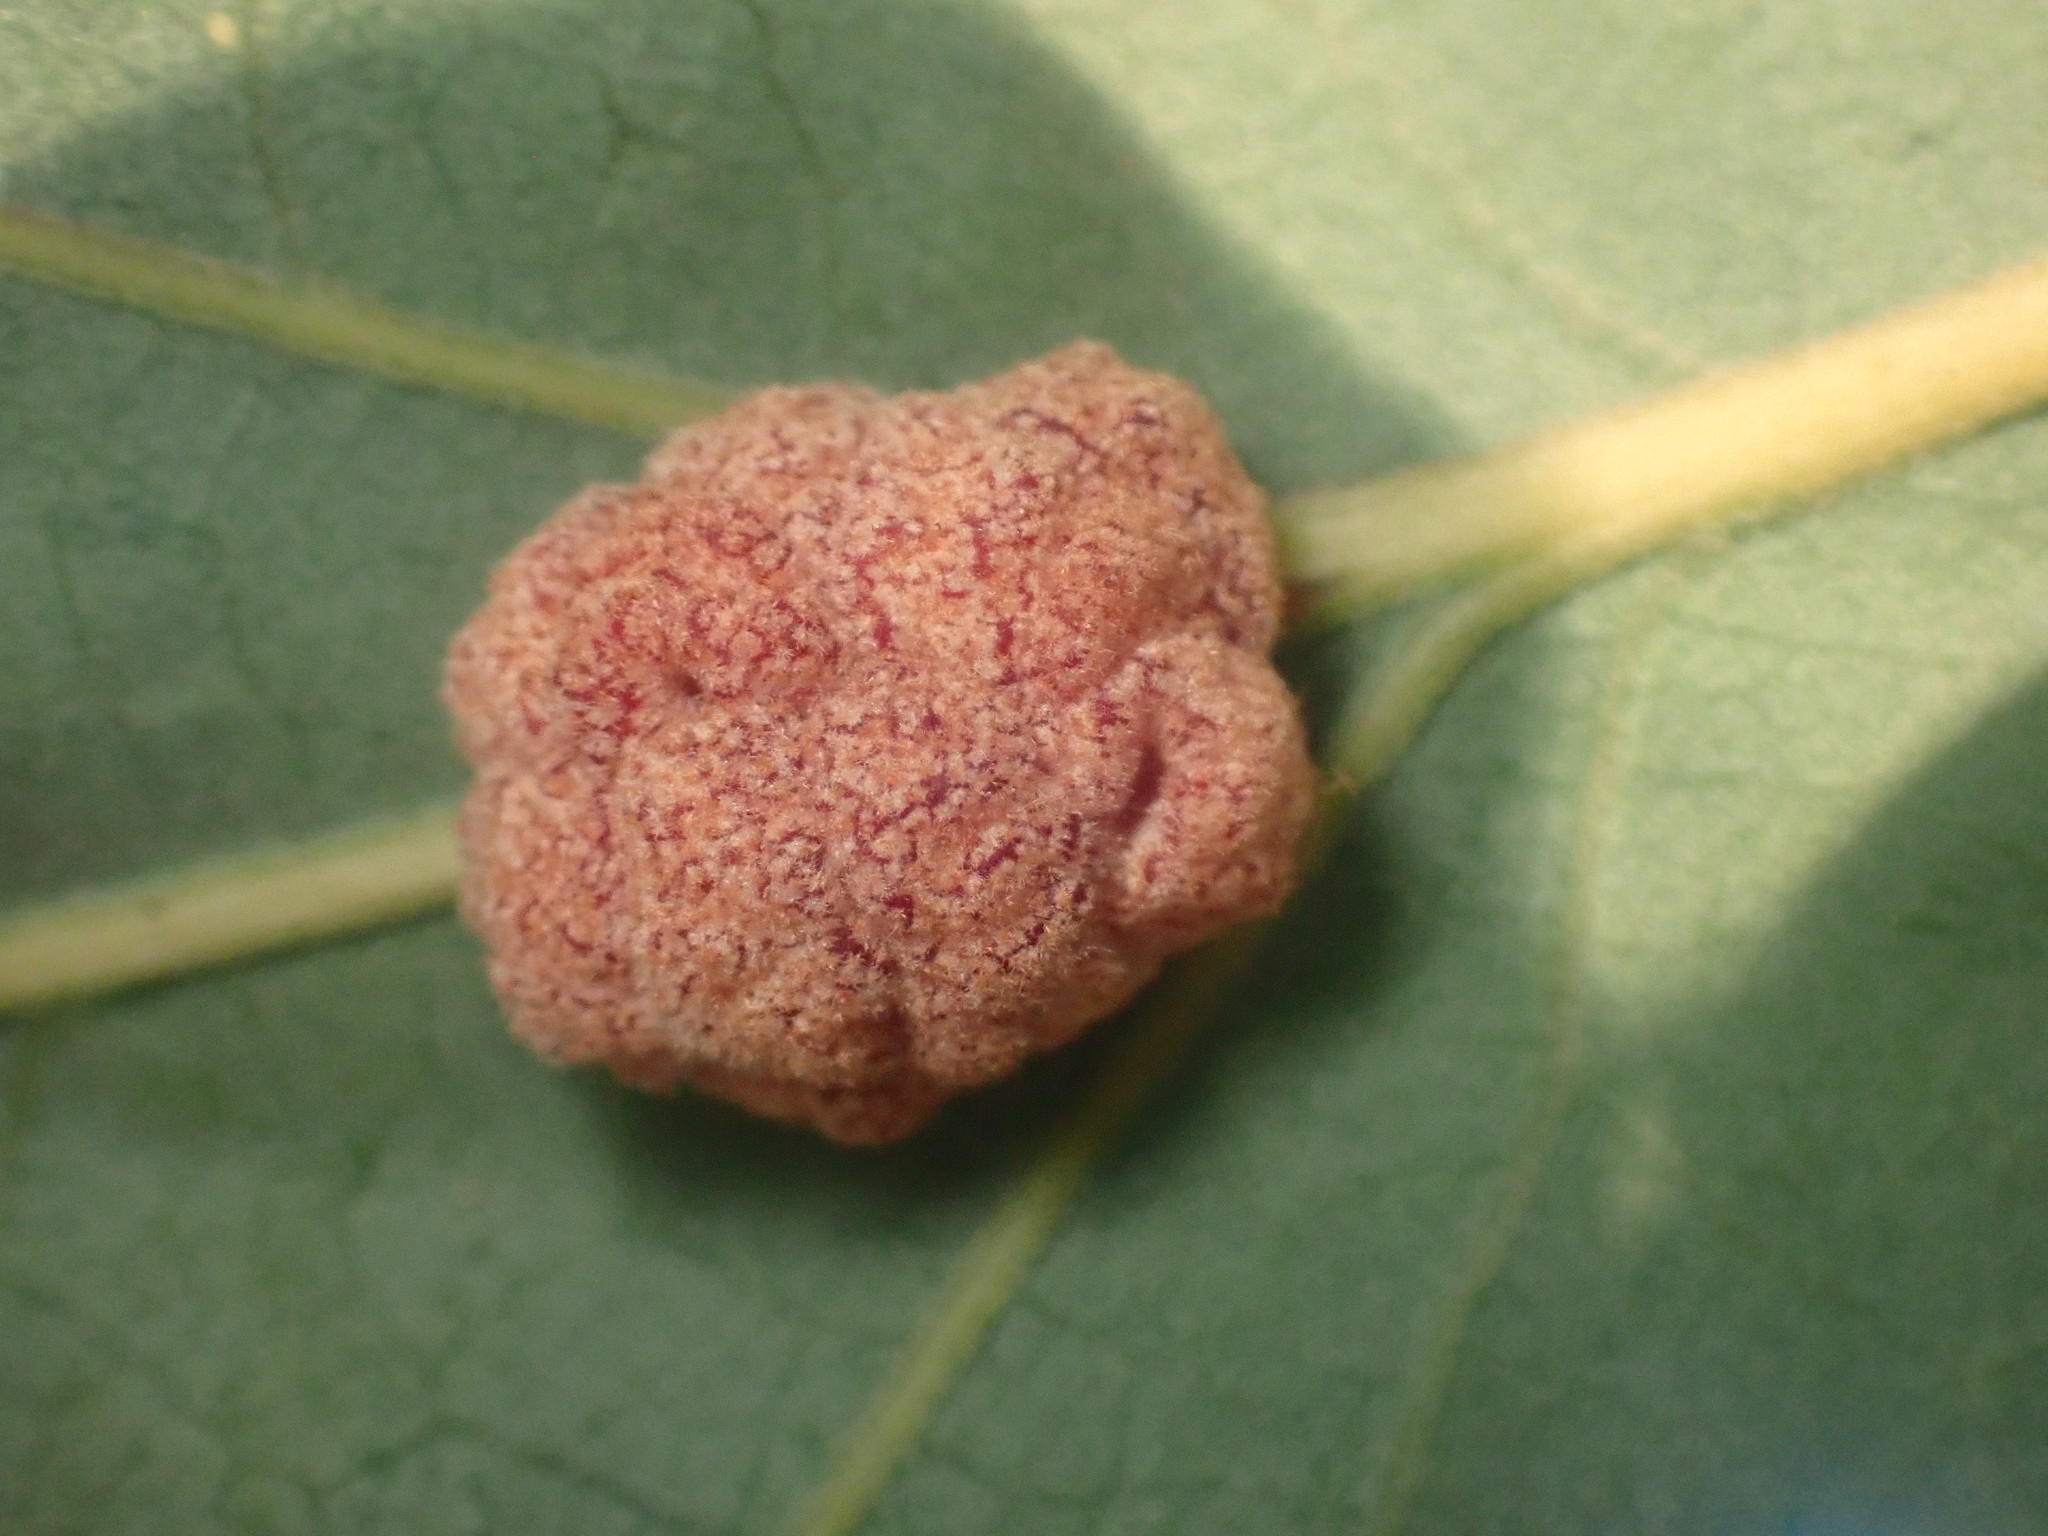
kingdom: Animalia
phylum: Arthropoda
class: Insecta
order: Hymenoptera
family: Cynipidae
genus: Andricus
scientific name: Andricus
